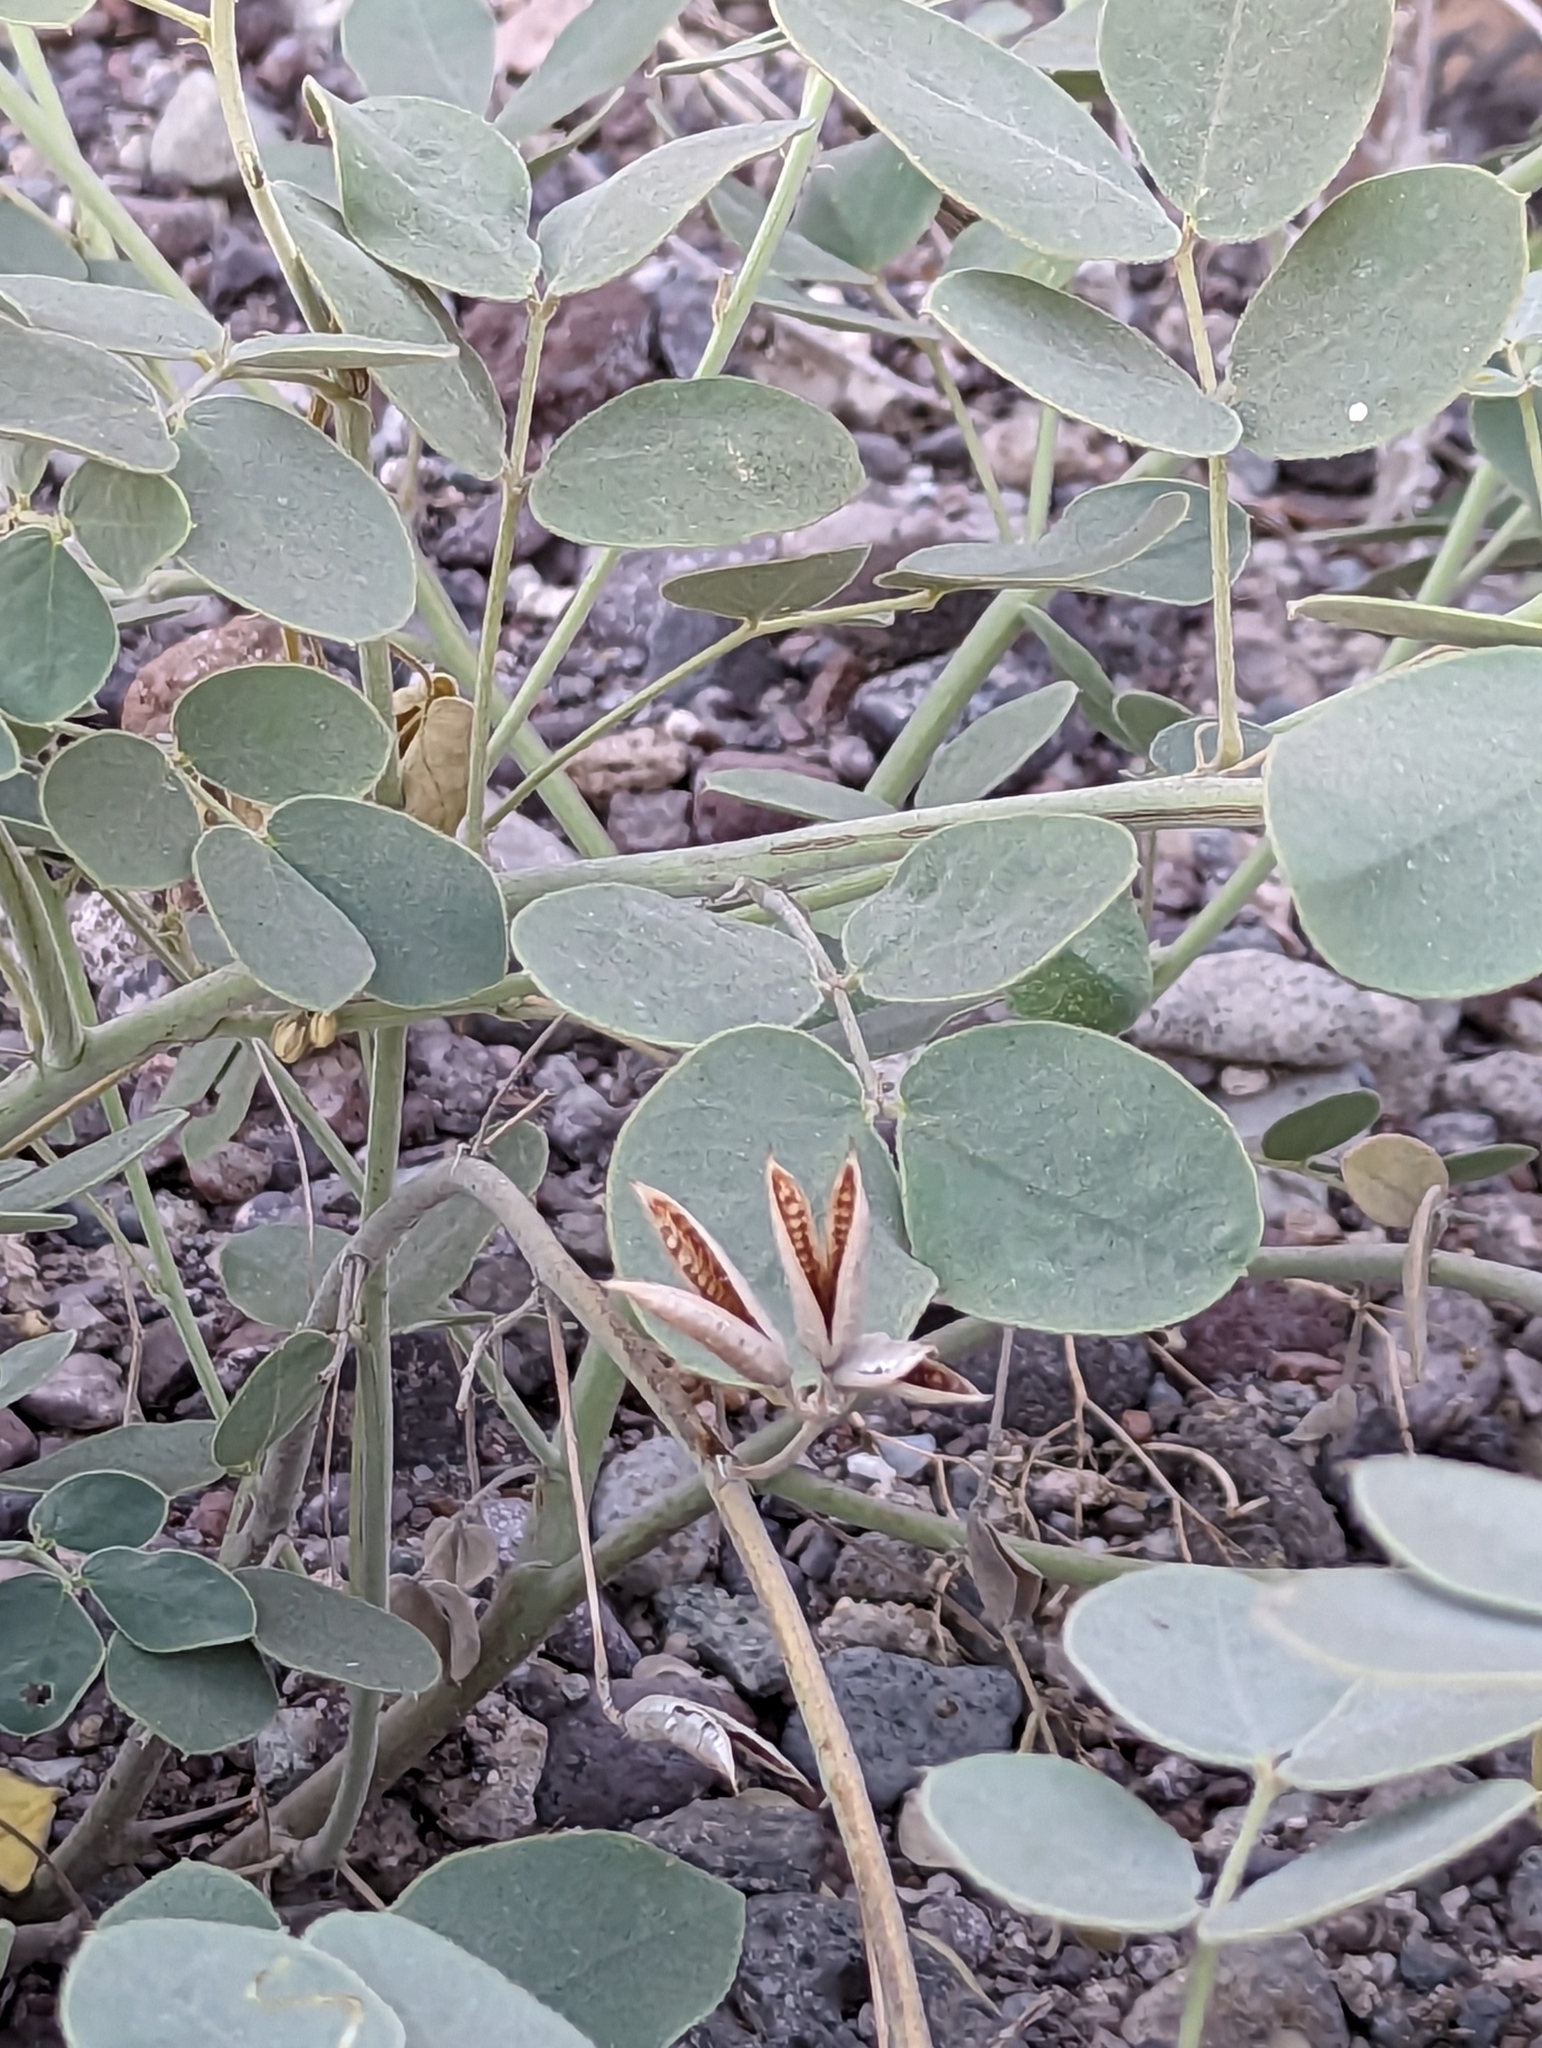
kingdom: Plantae
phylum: Tracheophyta
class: Magnoliopsida
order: Fabales
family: Fabaceae
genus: Senna
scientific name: Senna confinis
